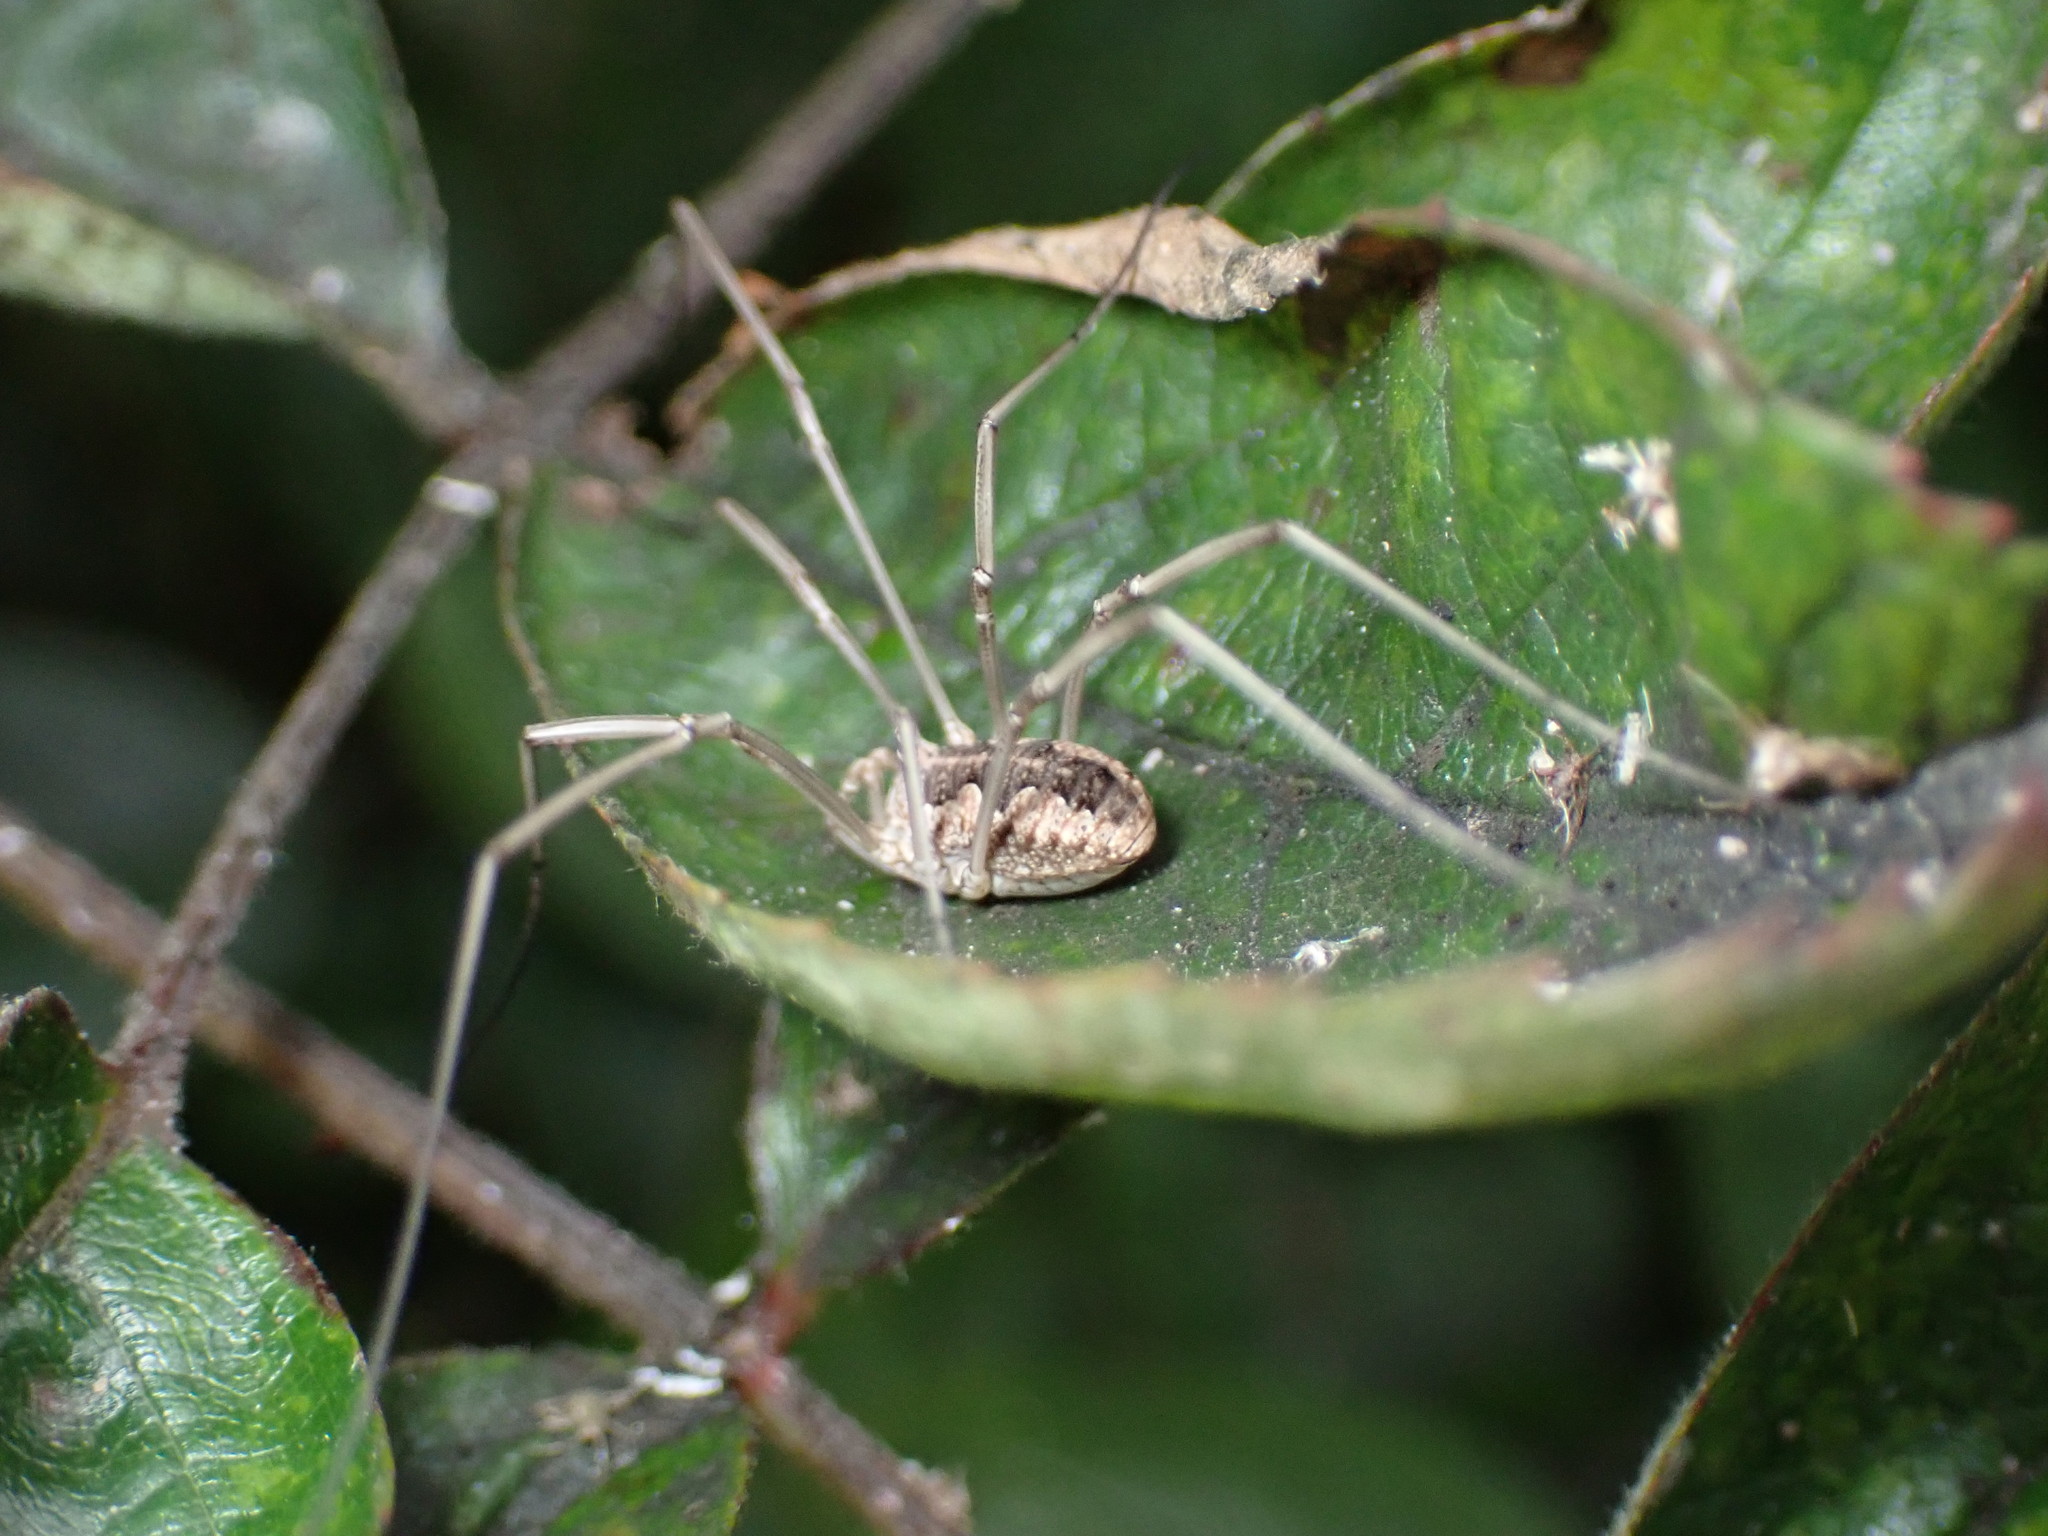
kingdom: Animalia
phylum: Arthropoda
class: Arachnida
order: Opiliones
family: Phalangiidae
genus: Phalangium
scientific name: Phalangium opilio
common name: Daddy longleg
